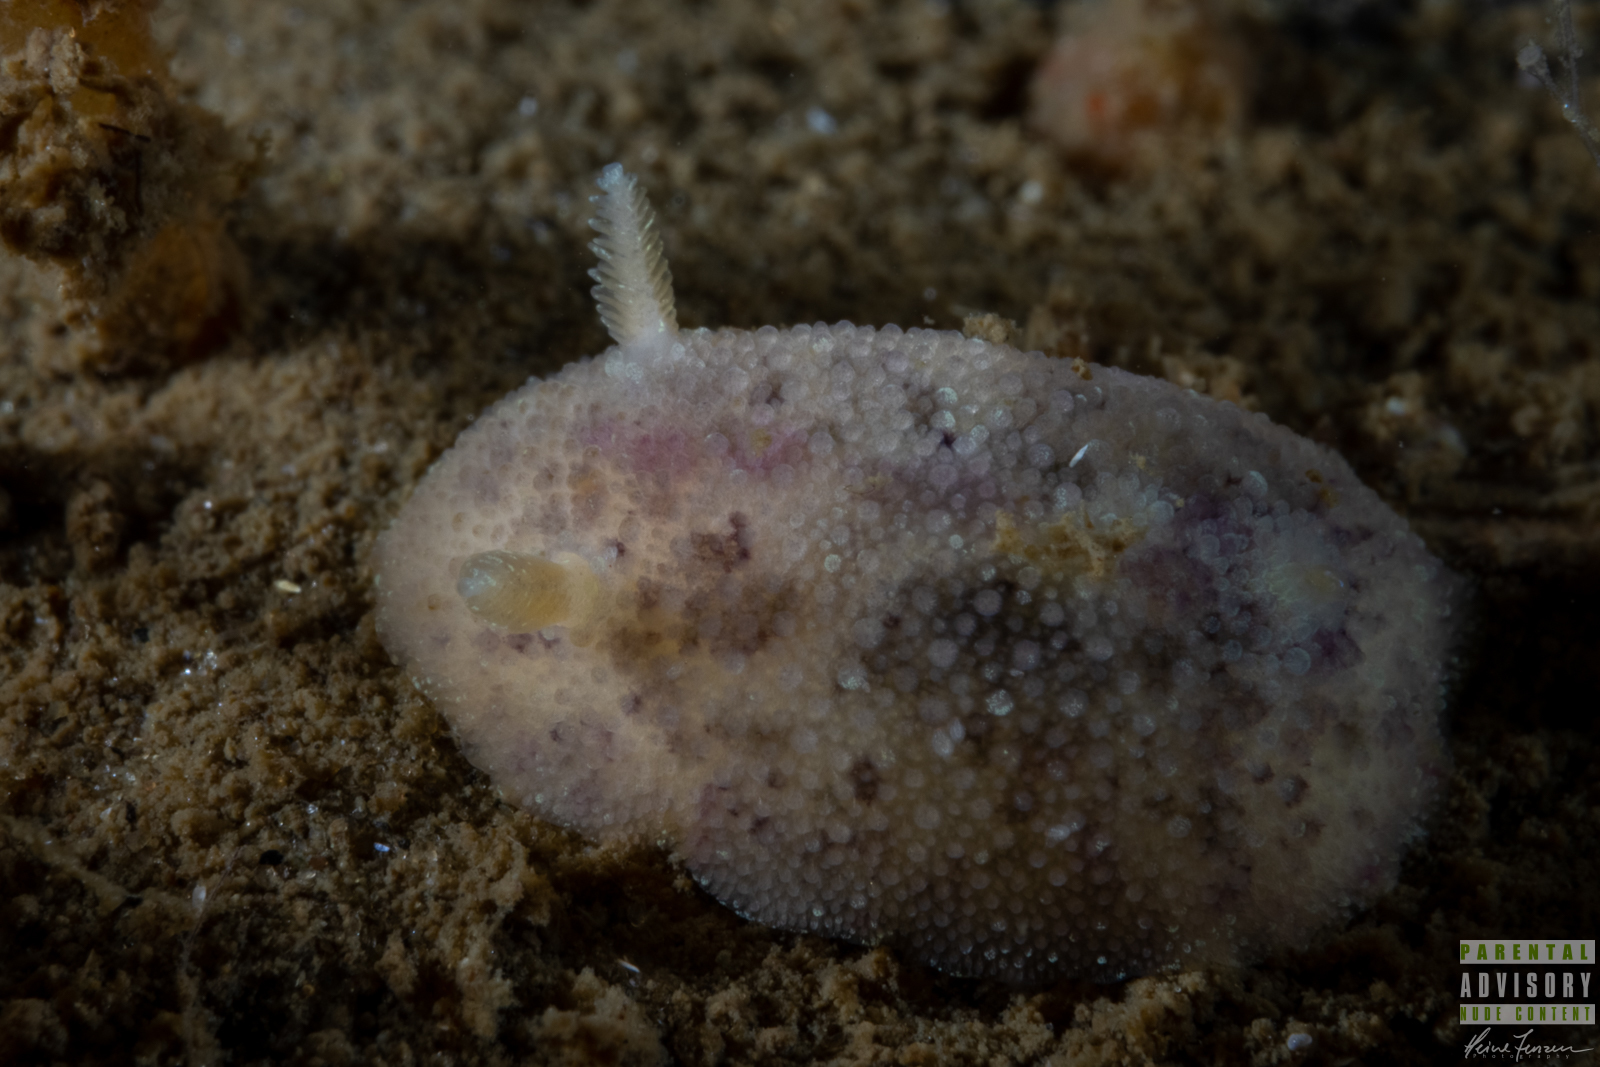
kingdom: Animalia
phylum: Mollusca
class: Gastropoda
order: Nudibranchia
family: Dorididae
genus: Doris
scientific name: Doris pseudoargus
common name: Sea lemon
